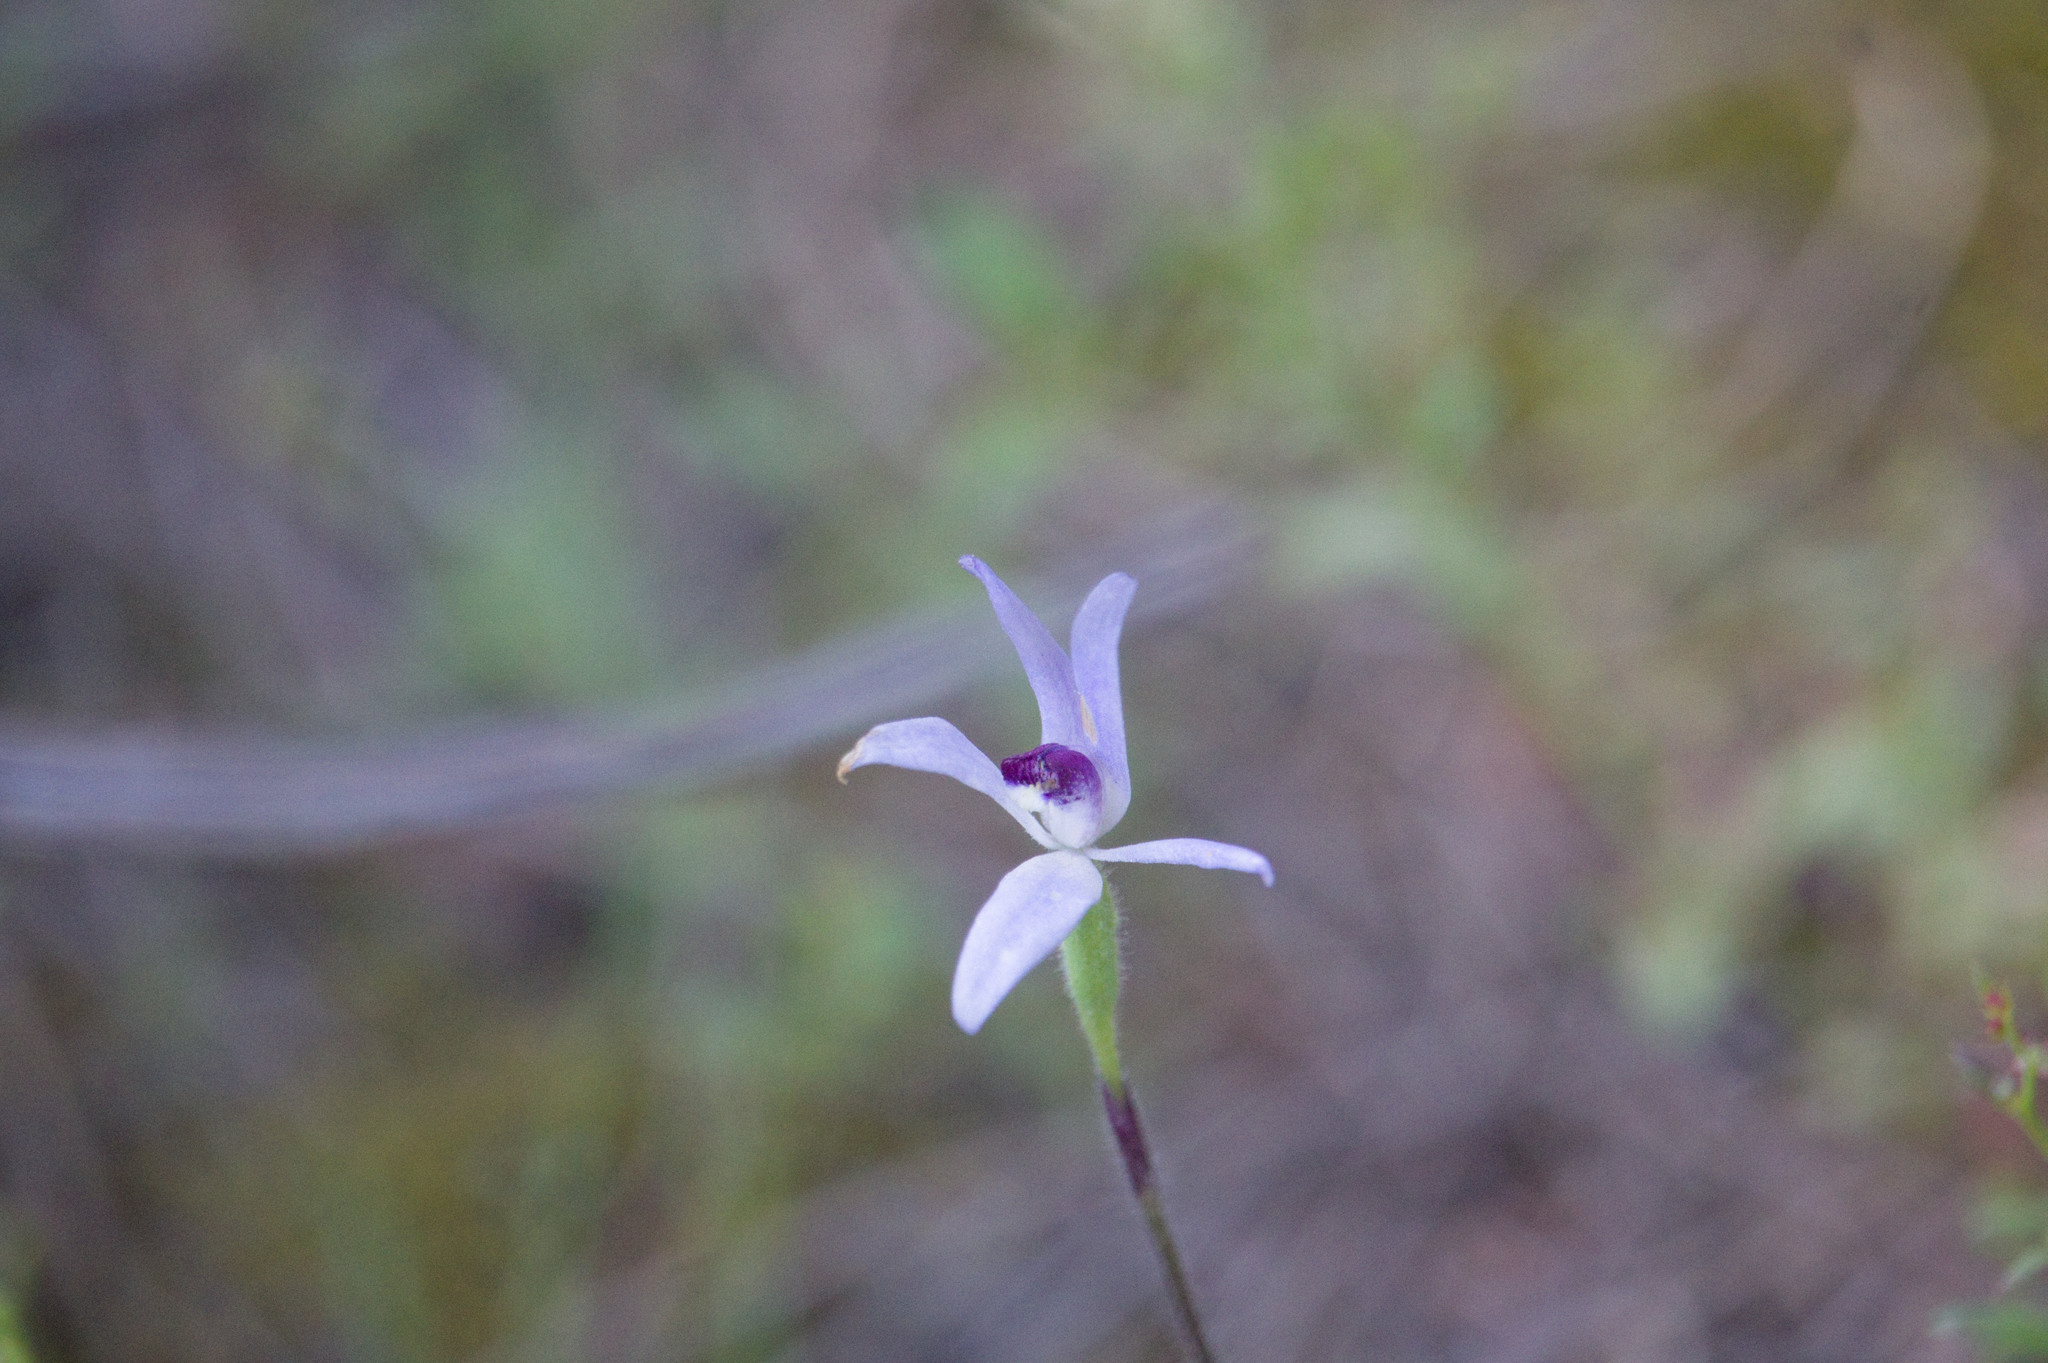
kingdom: Plantae
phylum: Tracheophyta
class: Liliopsida
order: Asparagales
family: Orchidaceae
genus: Caladenia
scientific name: Caladenia amplexans
